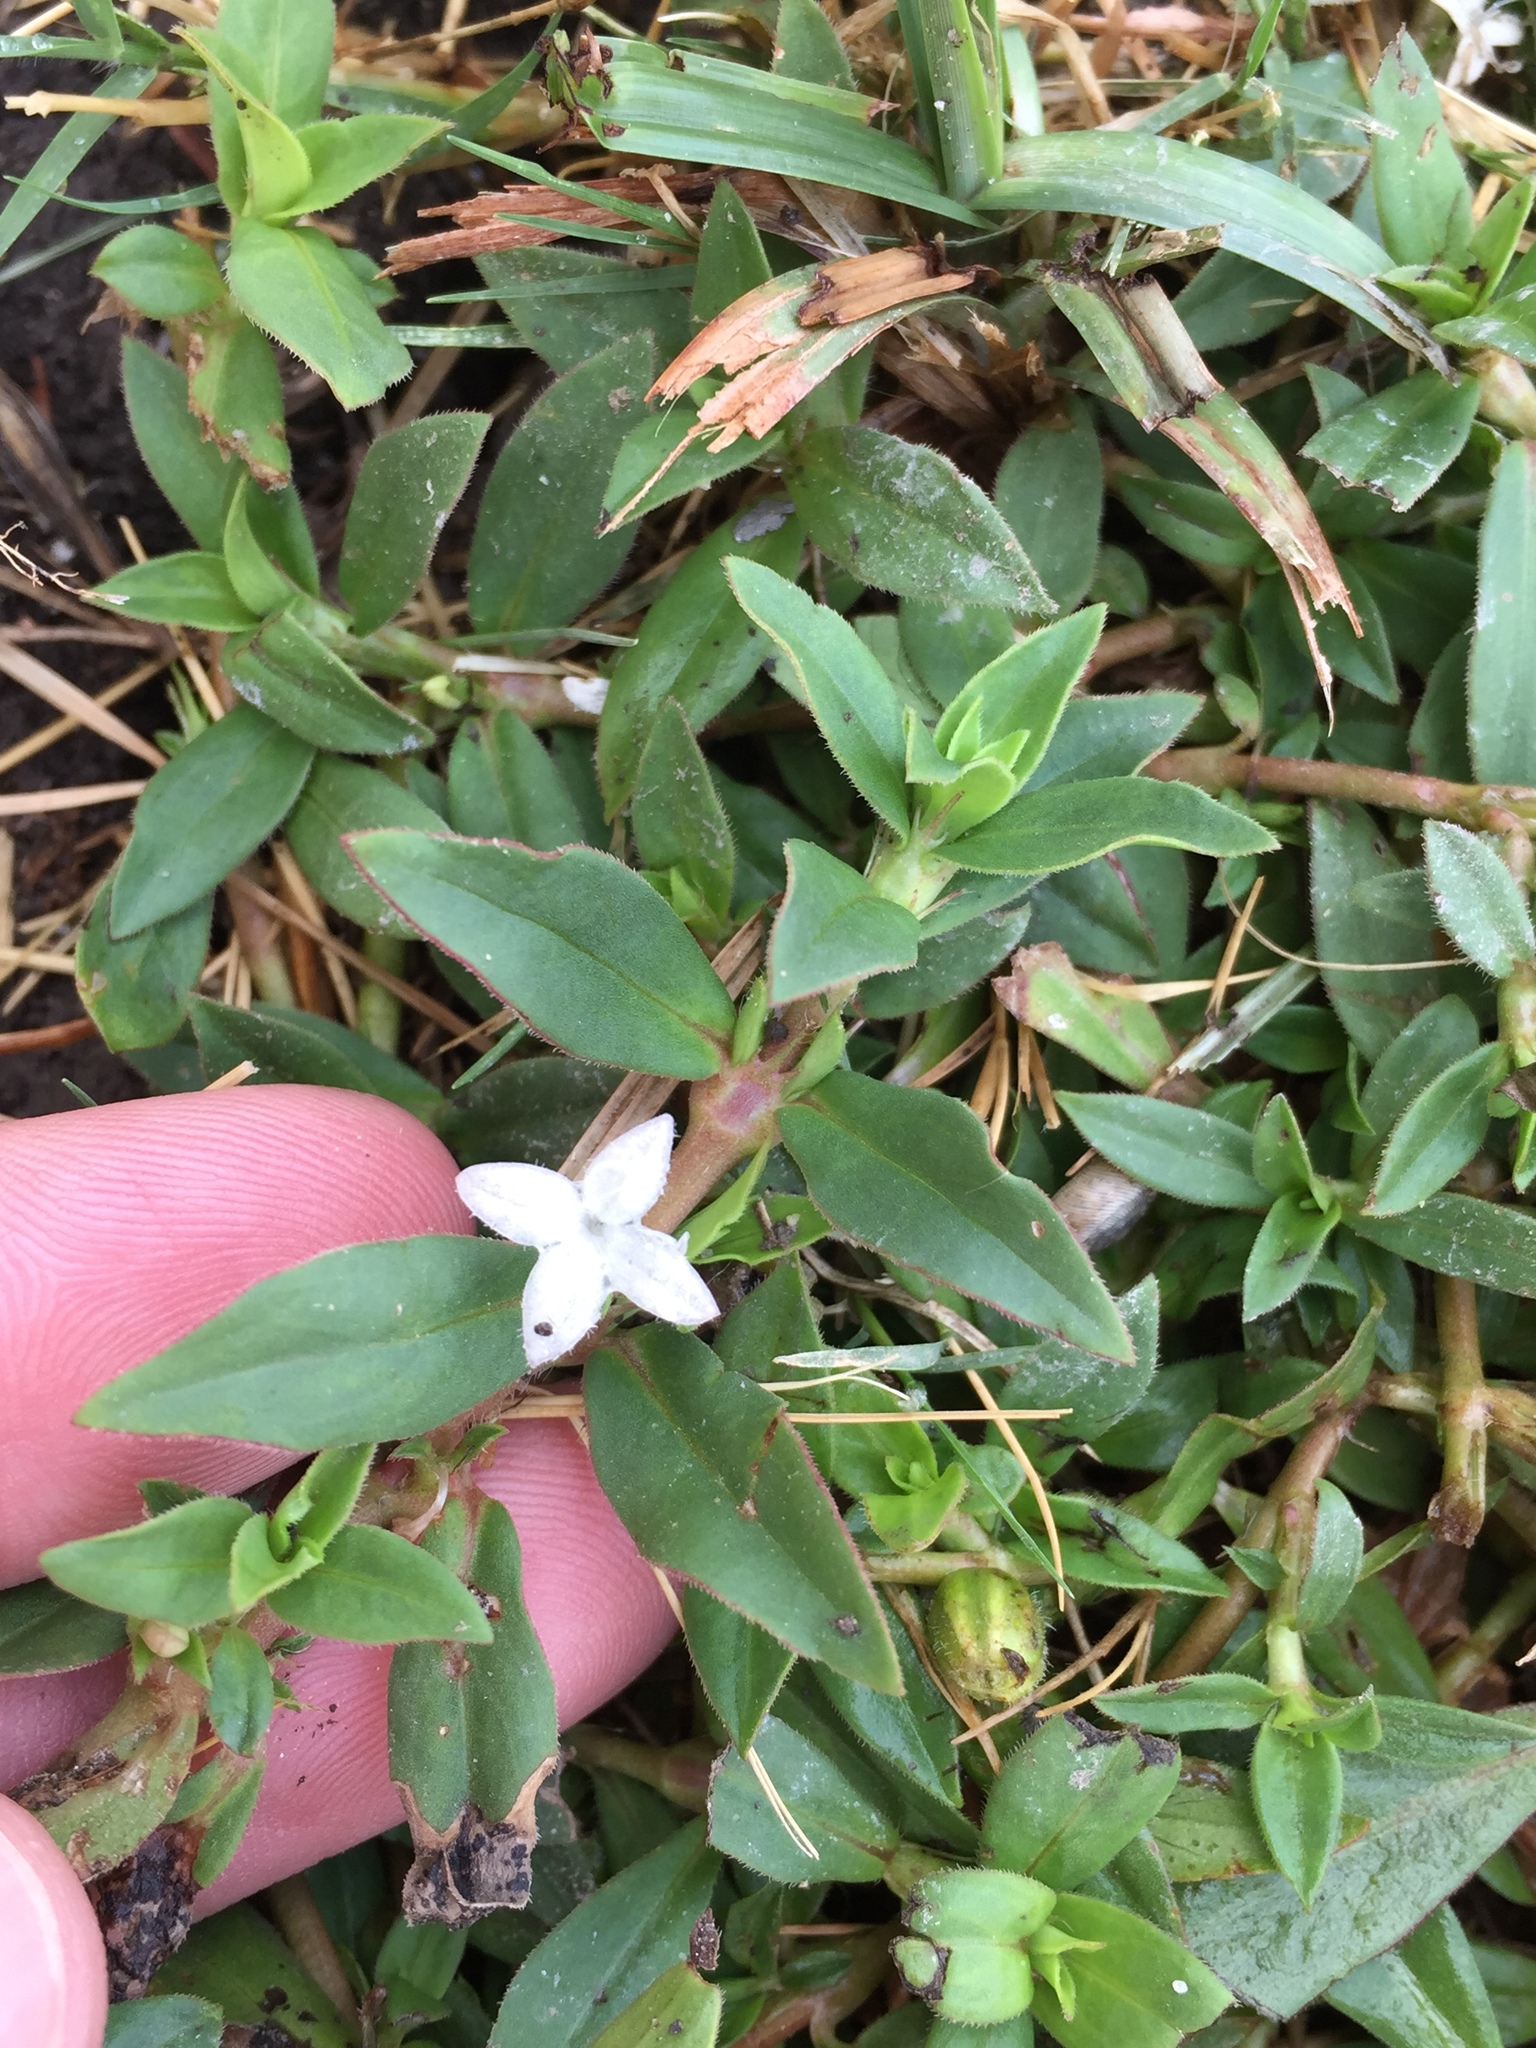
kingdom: Plantae
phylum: Tracheophyta
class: Magnoliopsida
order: Gentianales
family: Rubiaceae
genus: Diodia
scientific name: Diodia virginiana
